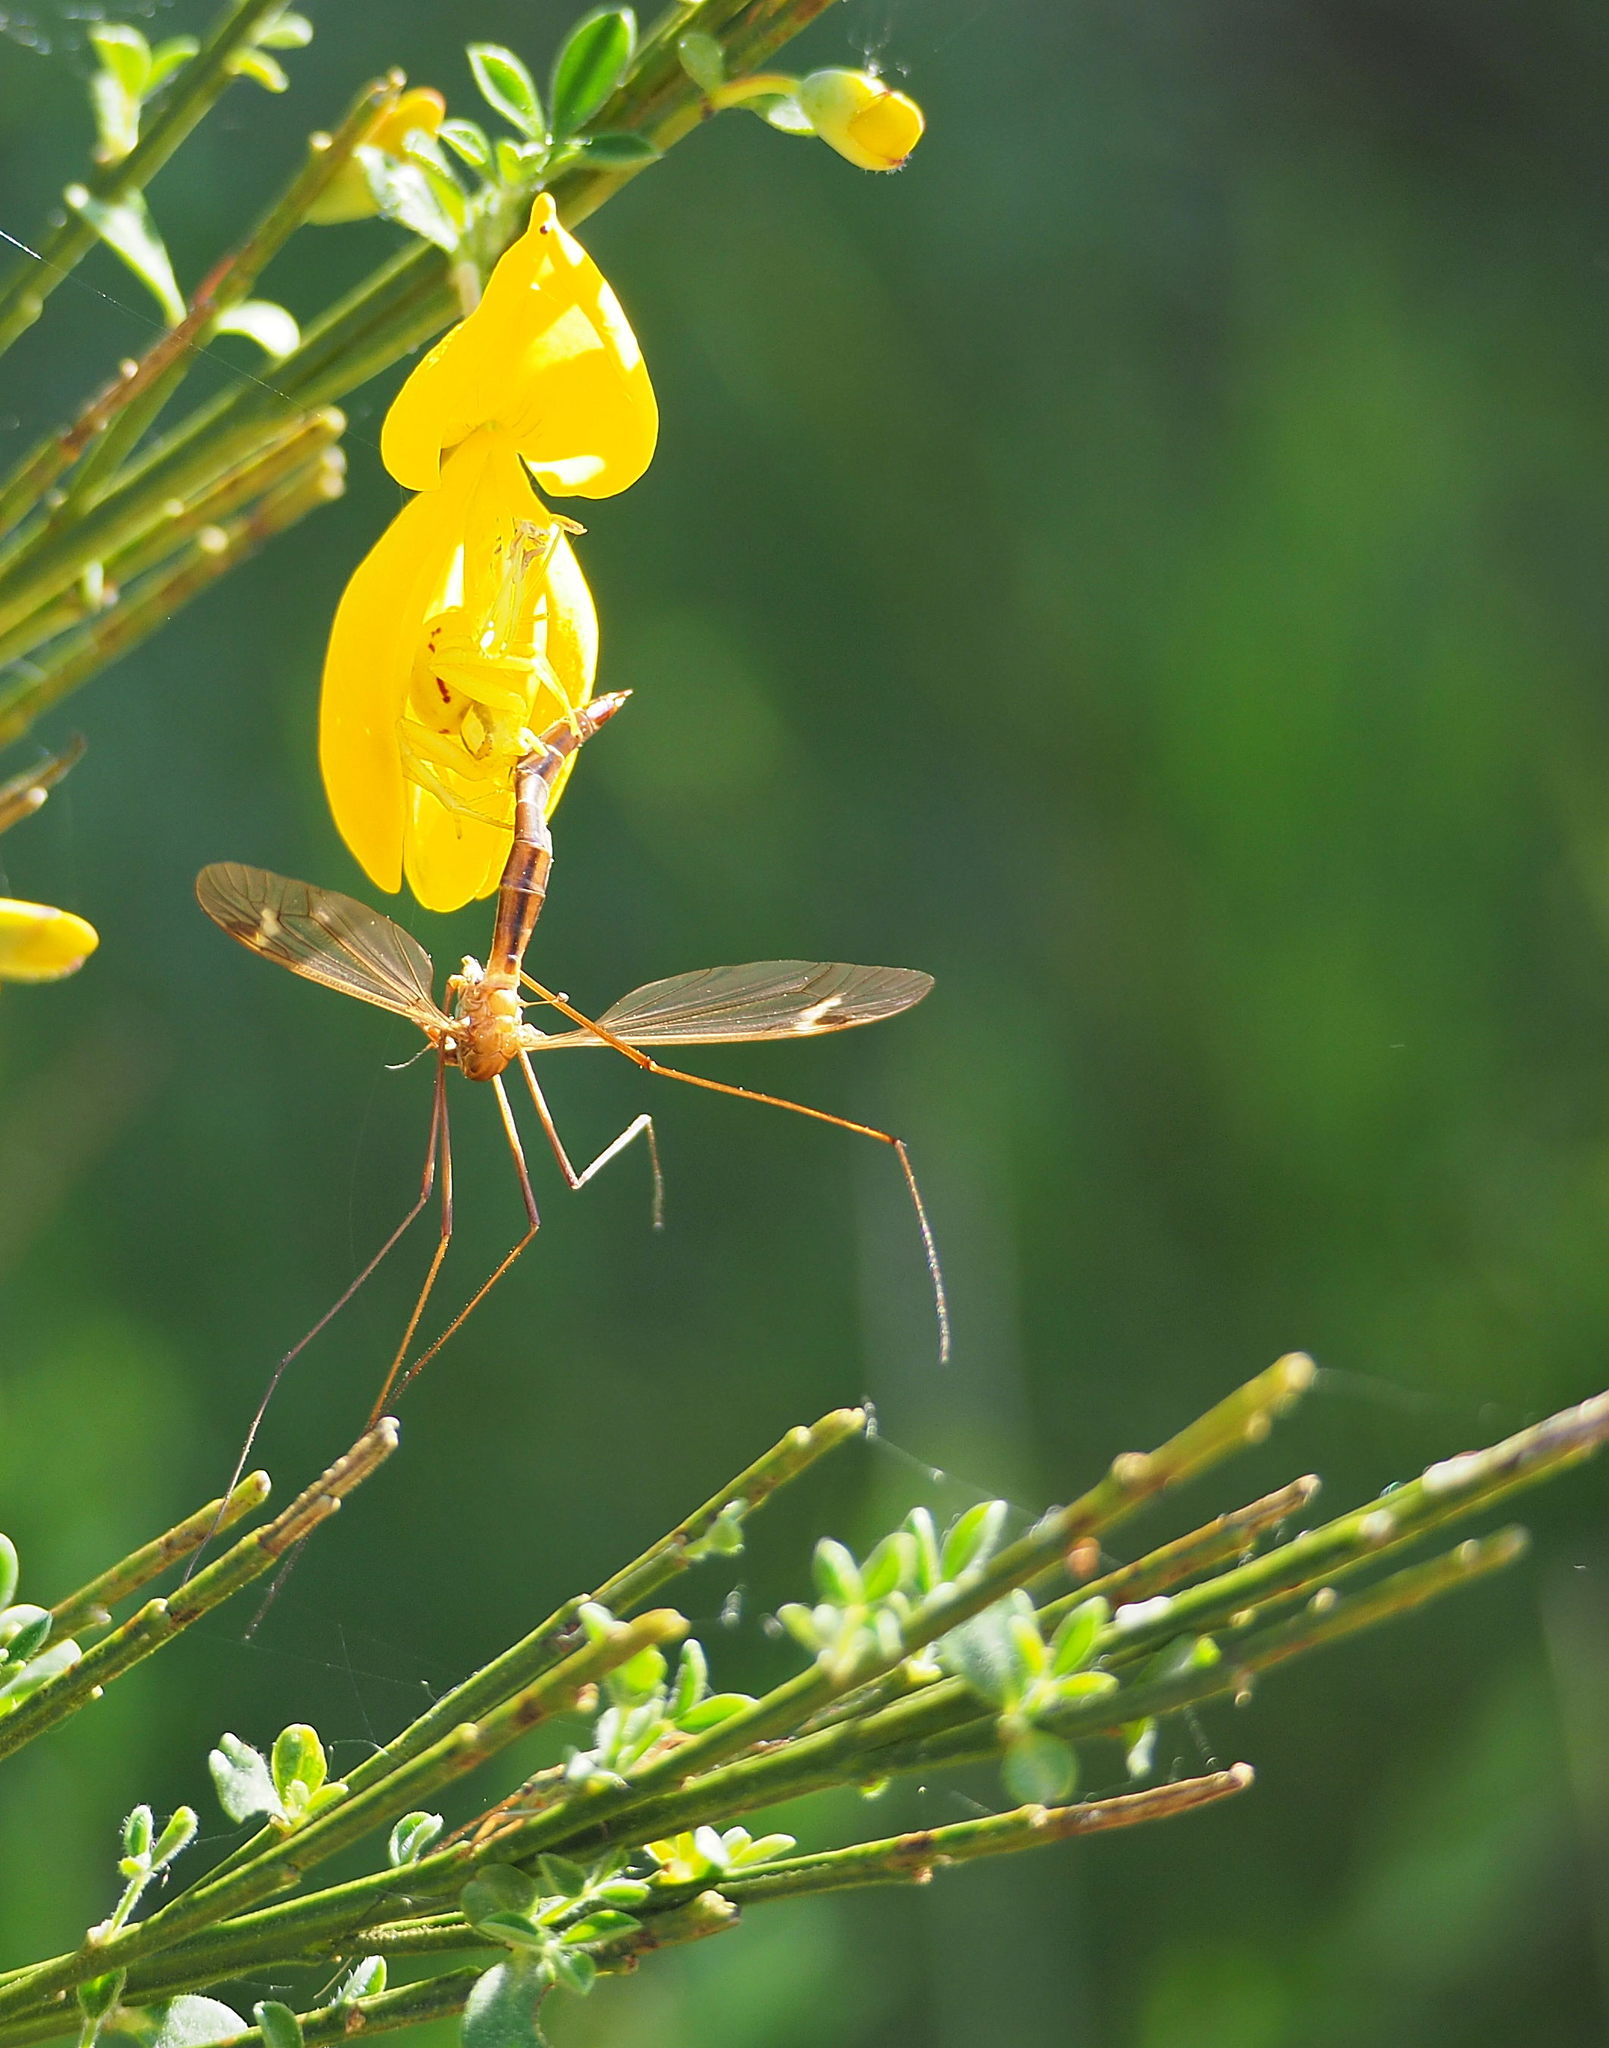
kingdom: Animalia
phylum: Arthropoda
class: Arachnida
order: Araneae
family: Thomisidae
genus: Misumena
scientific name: Misumena vatia
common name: Goldenrod crab spider
